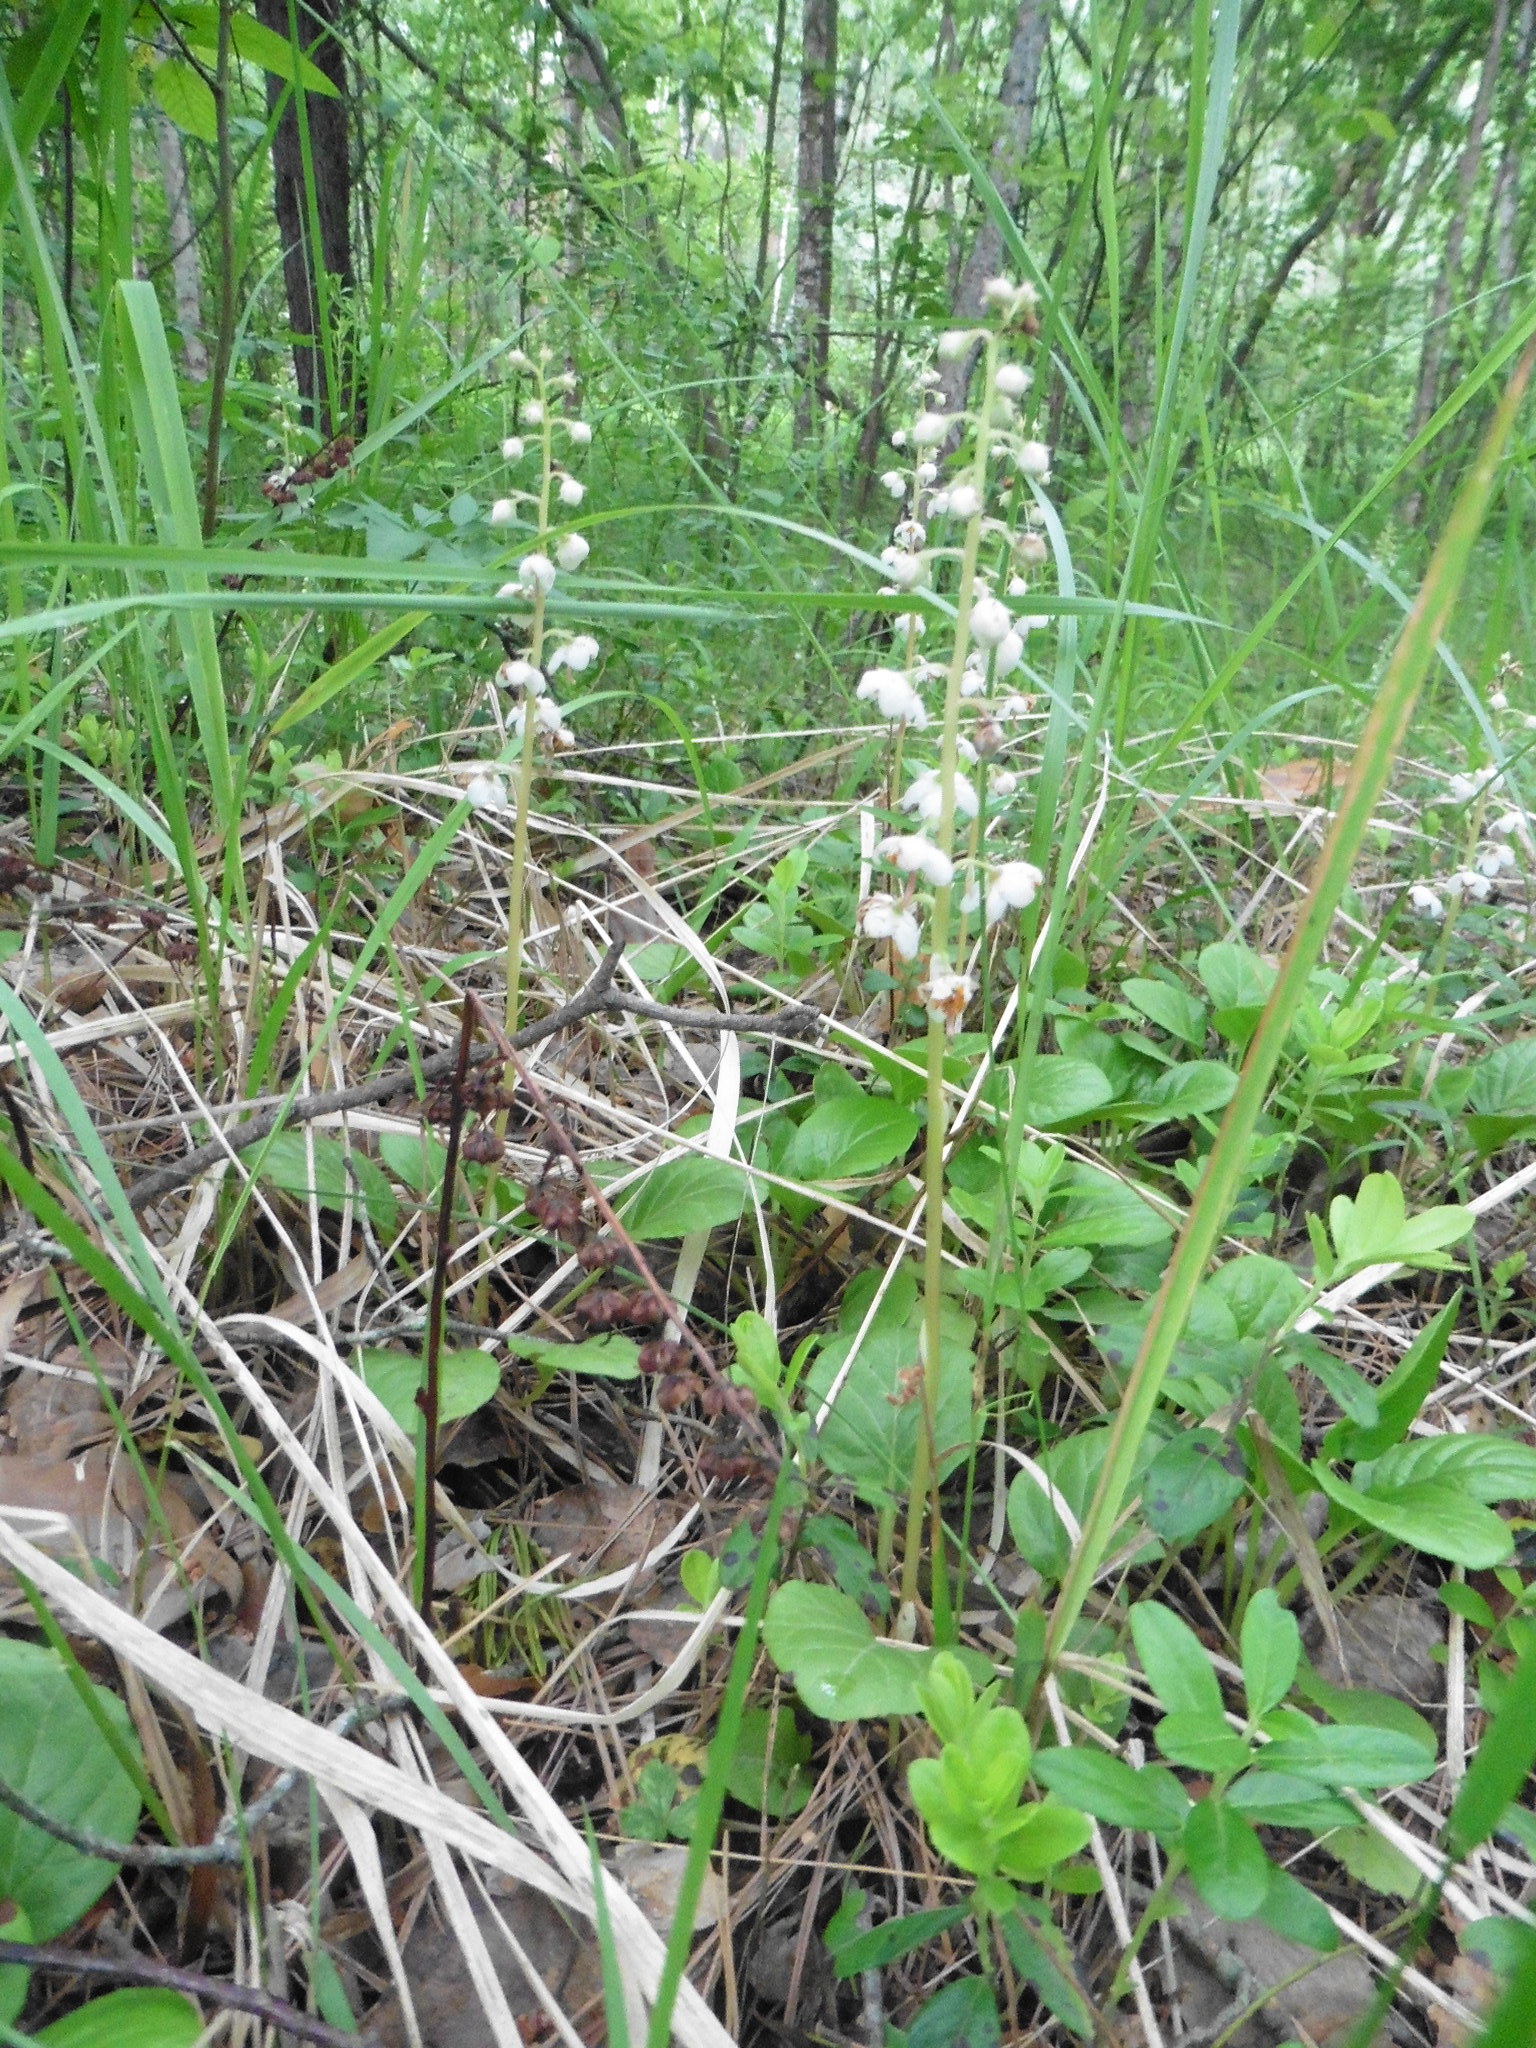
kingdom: Plantae
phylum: Tracheophyta
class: Magnoliopsida
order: Ericales
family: Ericaceae
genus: Pyrola
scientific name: Pyrola rotundifolia
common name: Round-leaved wintergreen
